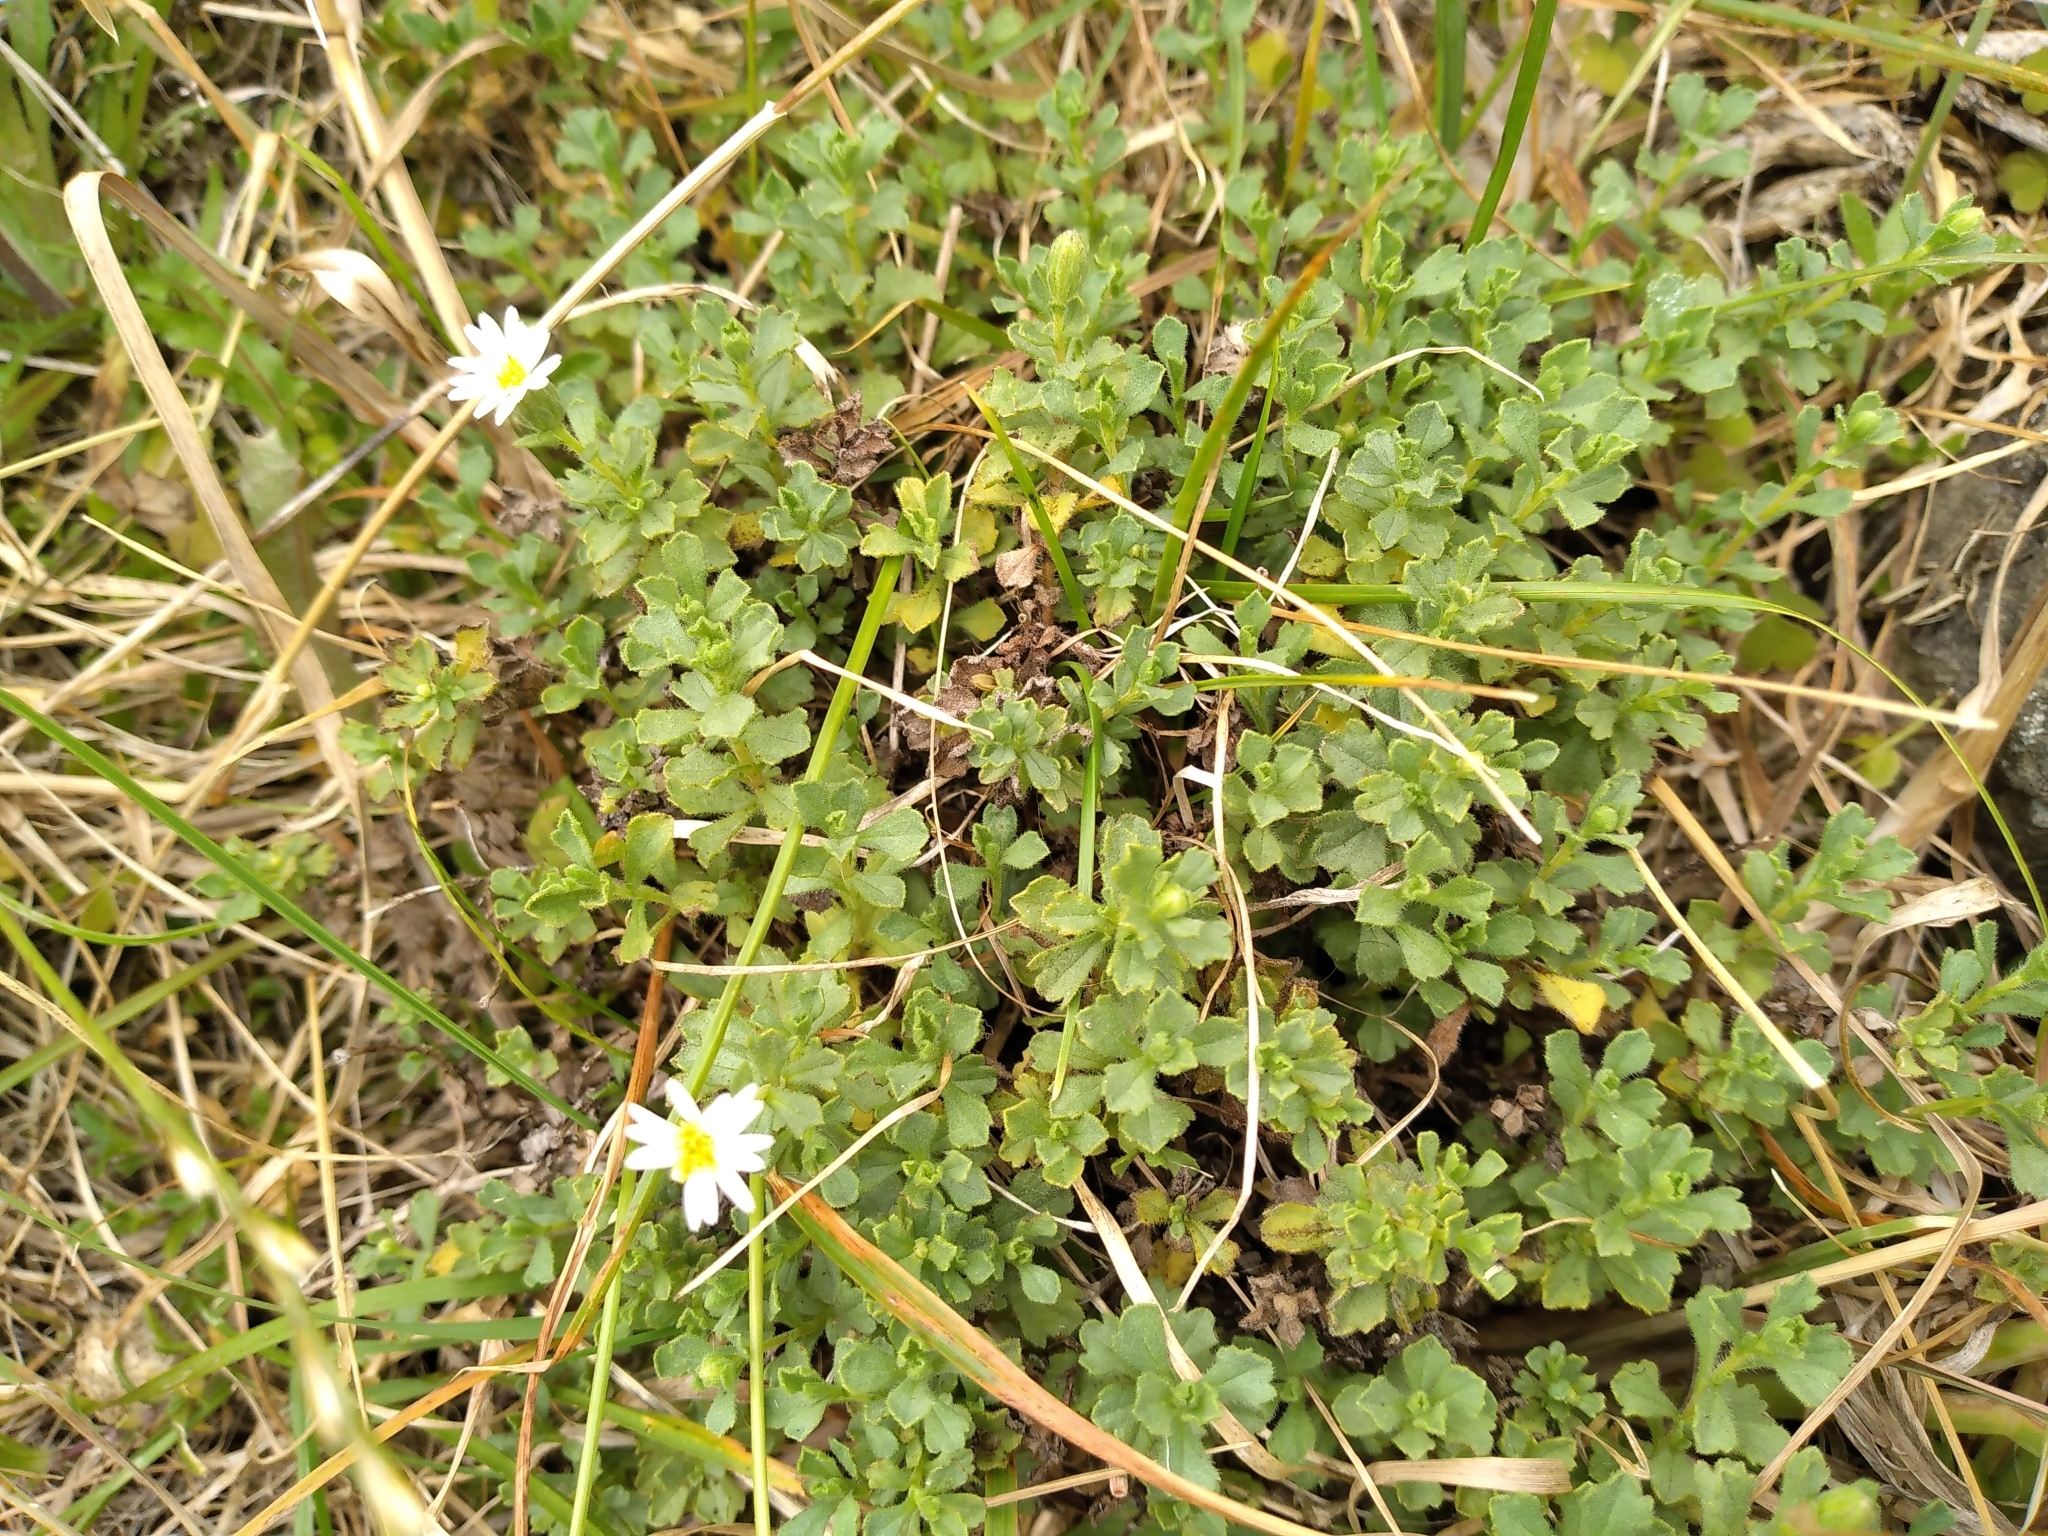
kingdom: Plantae
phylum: Tracheophyta
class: Magnoliopsida
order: Asterales
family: Asteraceae
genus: Vittadinia
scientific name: Vittadinia australis
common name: White fuzzweed
